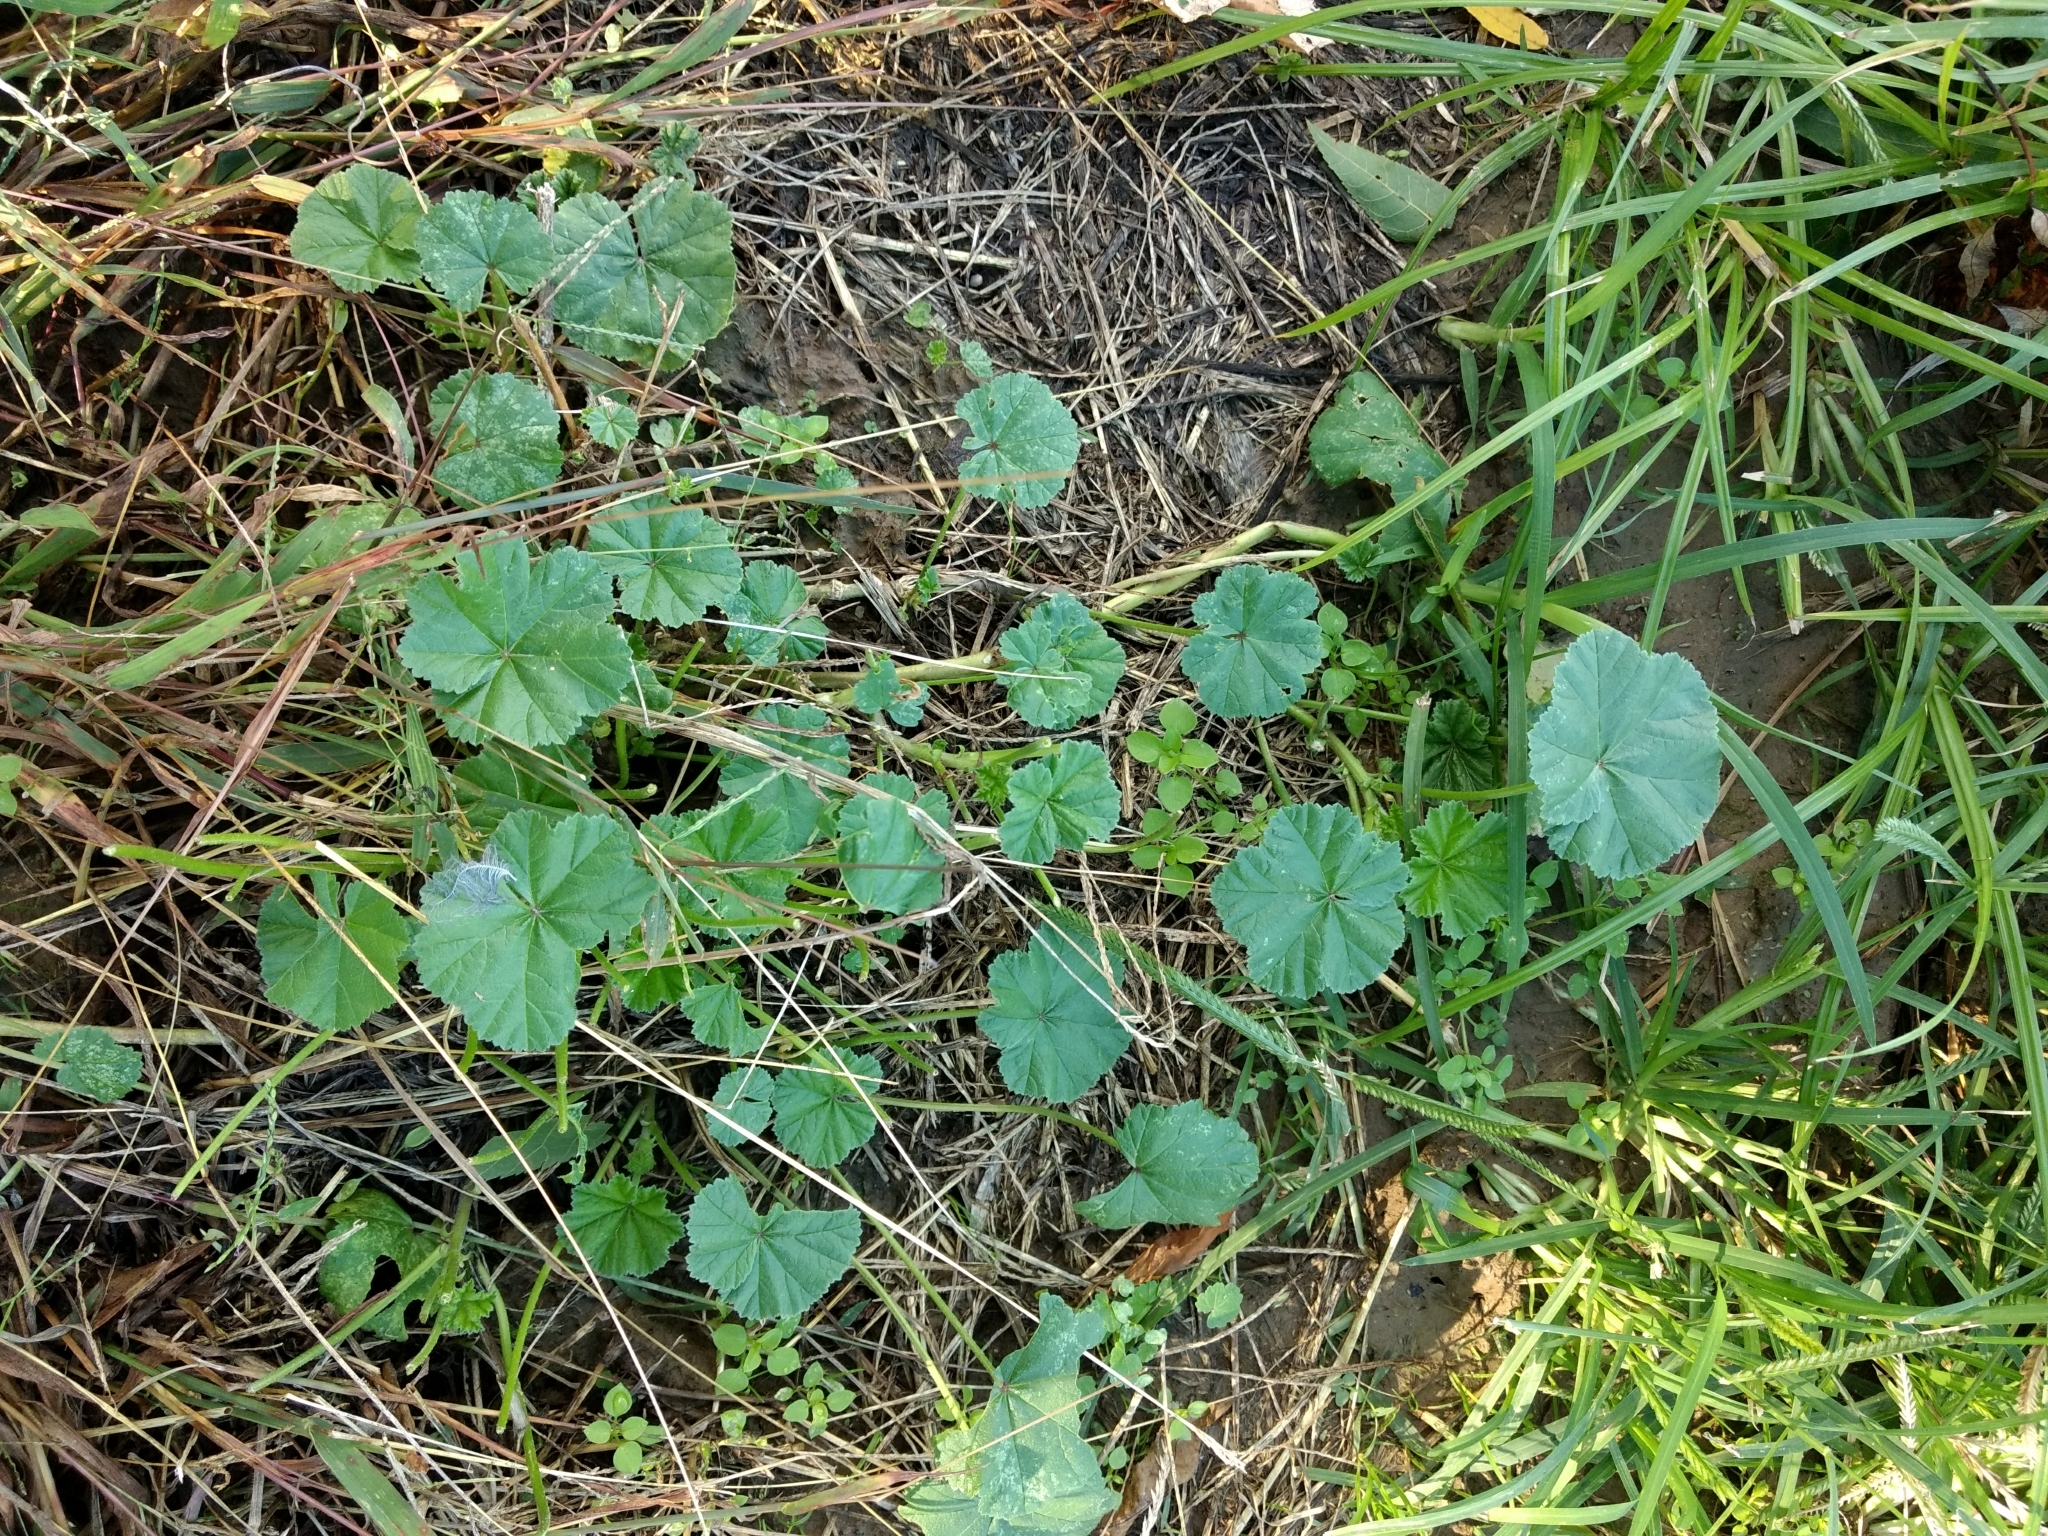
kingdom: Plantae
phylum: Tracheophyta
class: Magnoliopsida
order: Malvales
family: Malvaceae
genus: Malva
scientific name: Malva neglecta
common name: Common mallow
